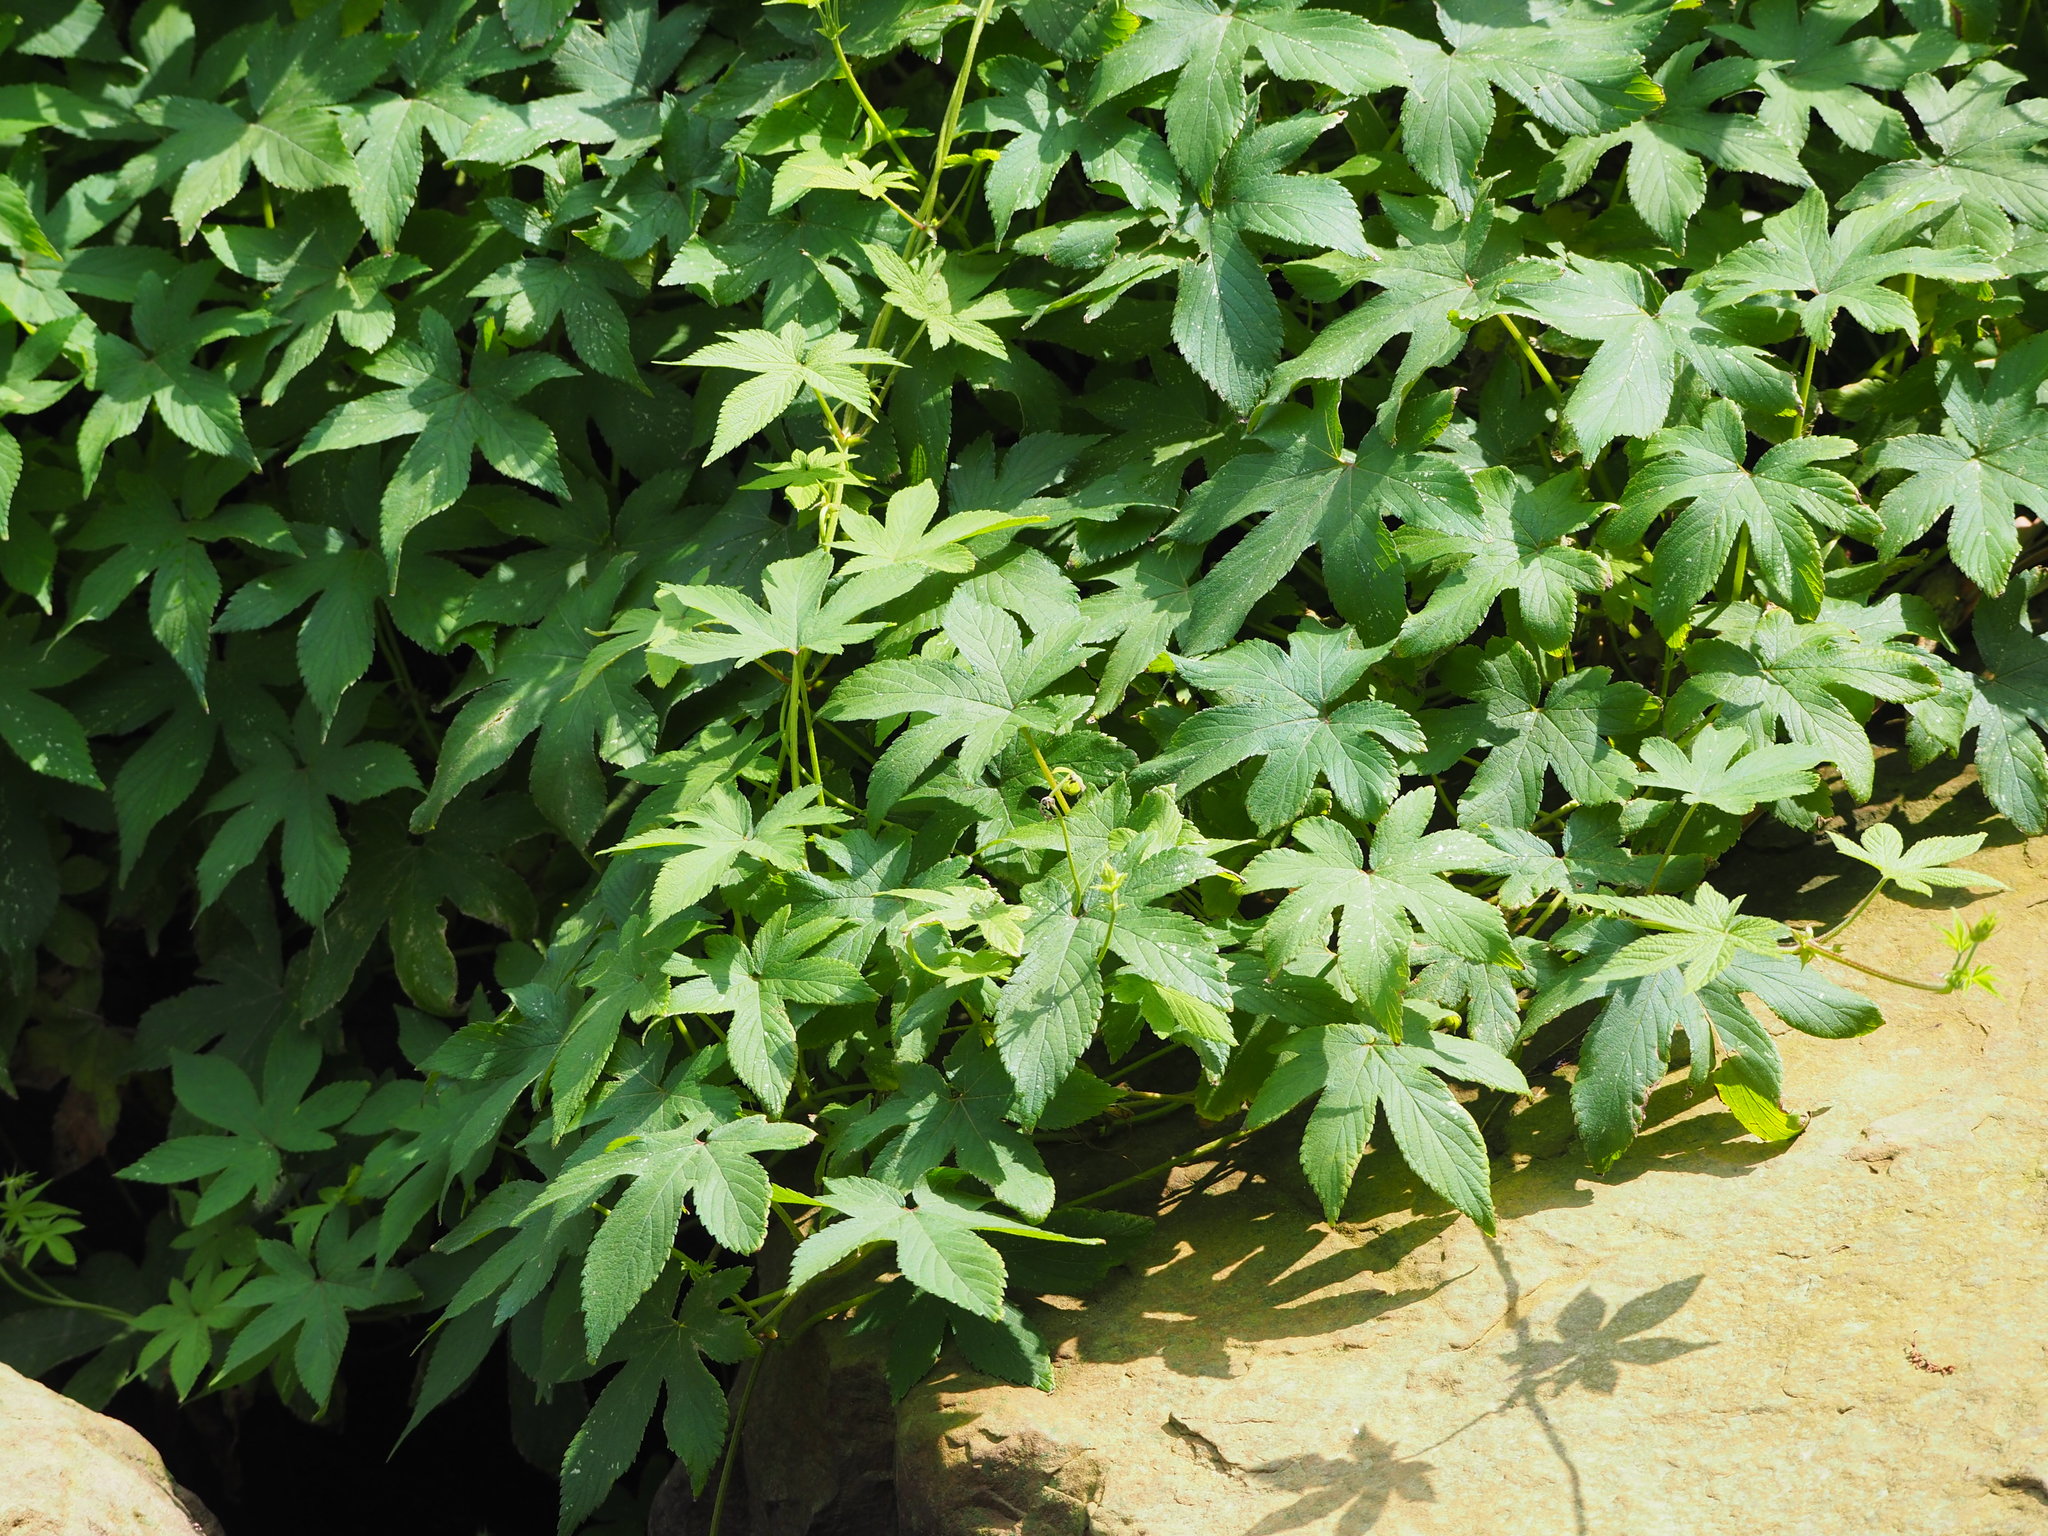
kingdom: Plantae
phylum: Tracheophyta
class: Magnoliopsida
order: Rosales
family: Cannabaceae
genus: Humulus
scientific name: Humulus scandens
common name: Japanese hop
